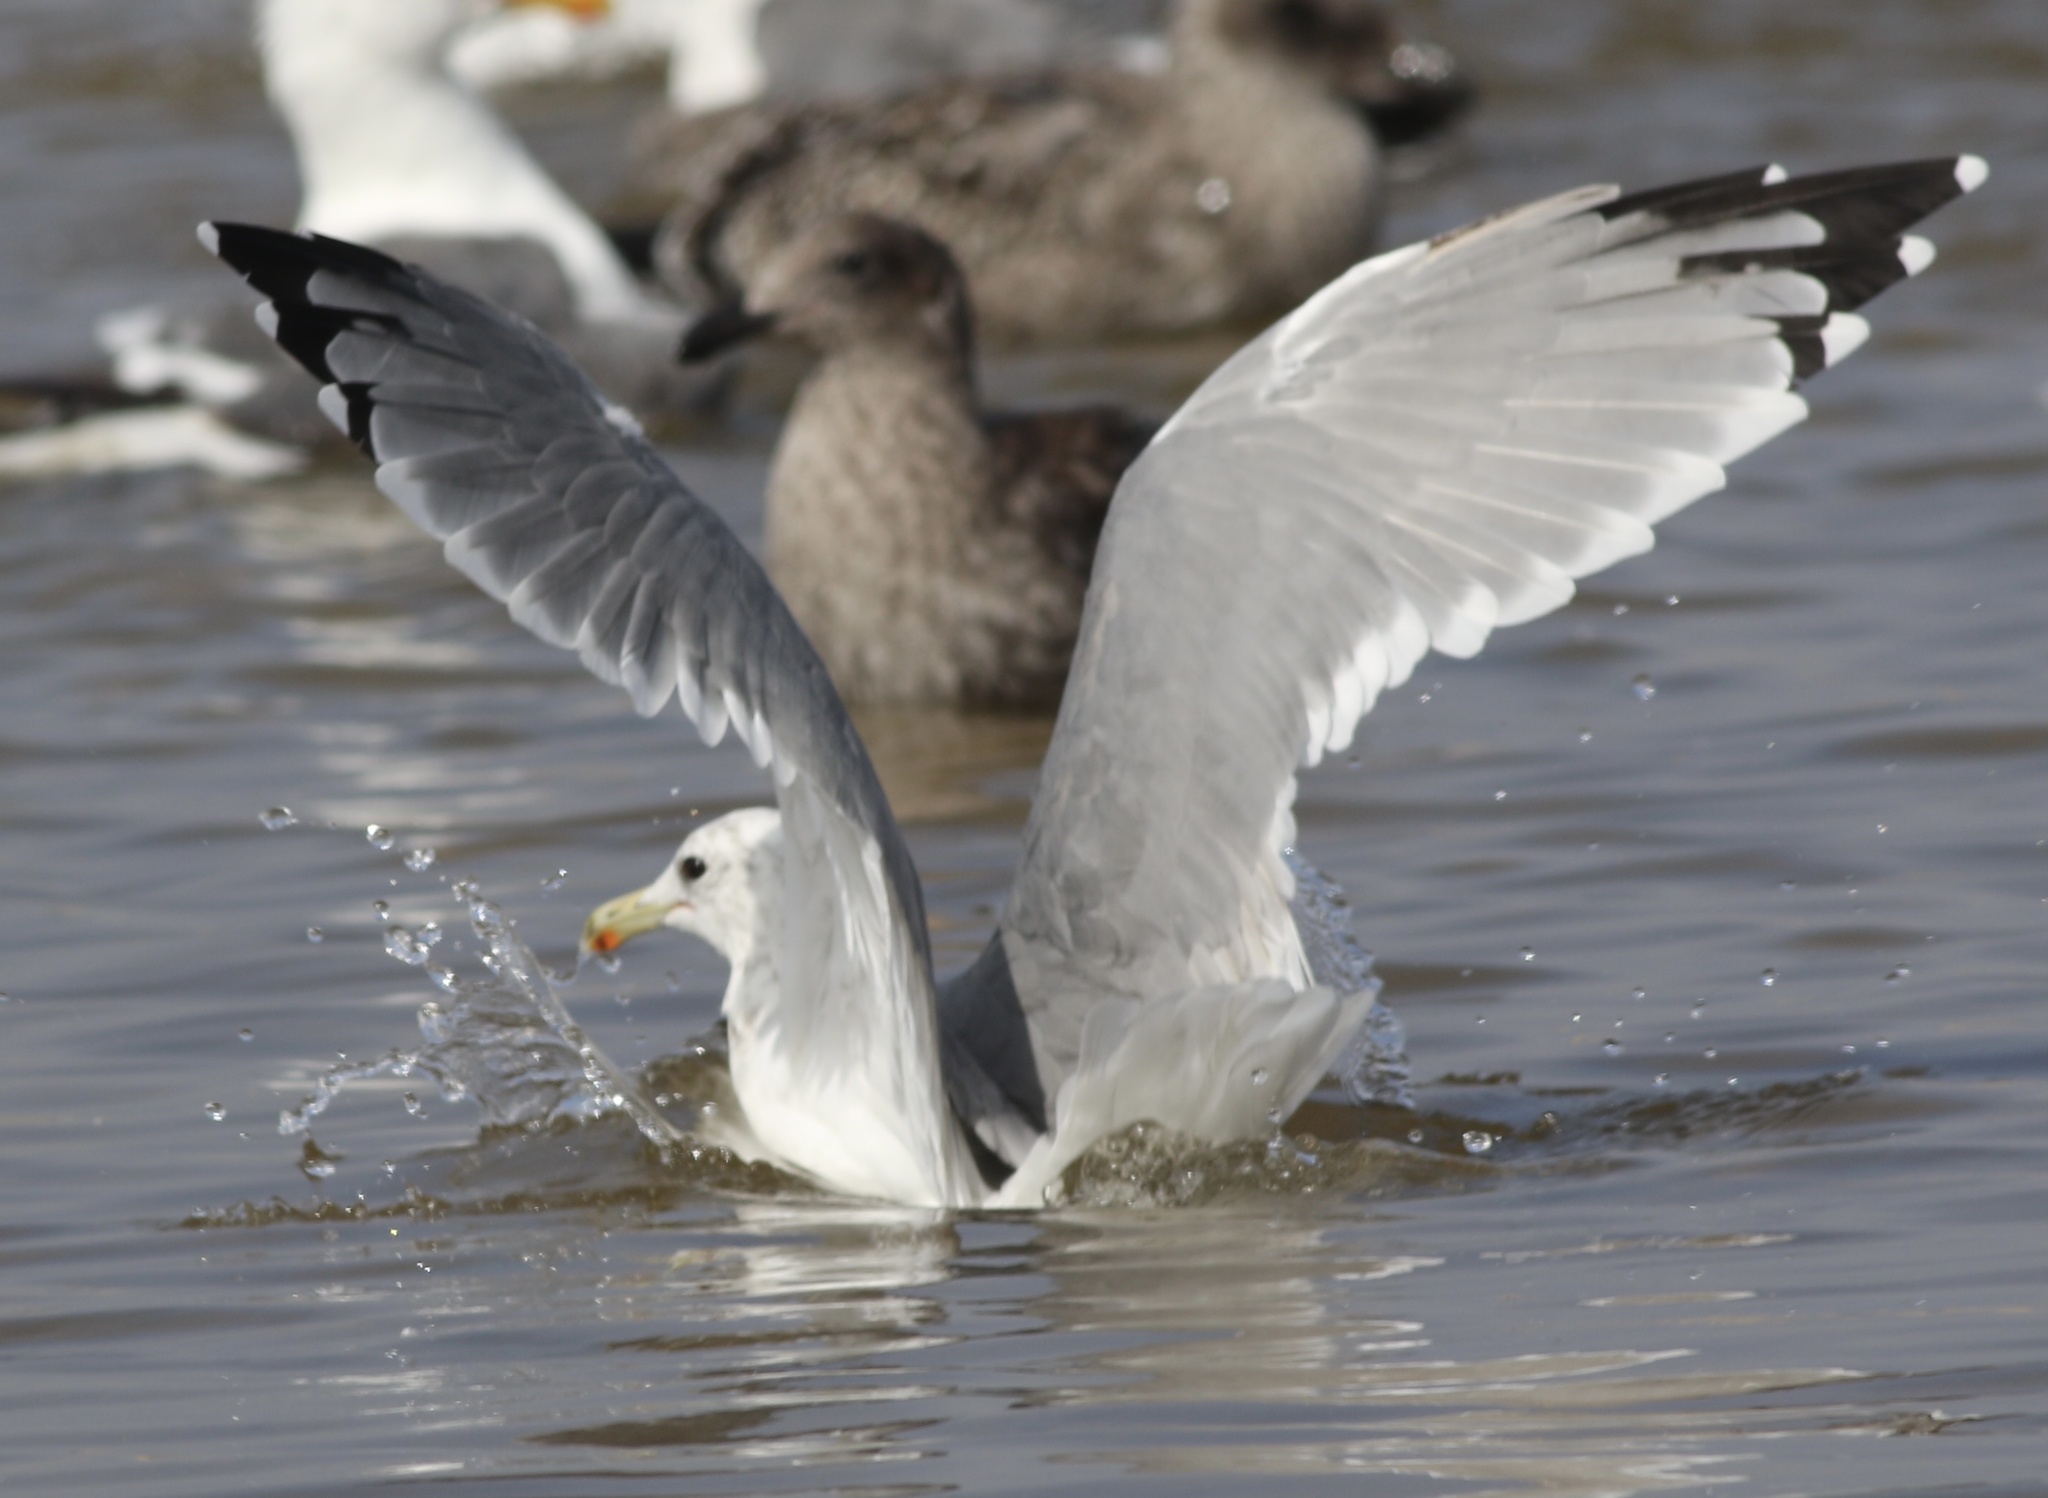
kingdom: Animalia
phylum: Chordata
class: Aves
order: Charadriiformes
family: Laridae
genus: Larus
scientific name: Larus californicus
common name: California gull
